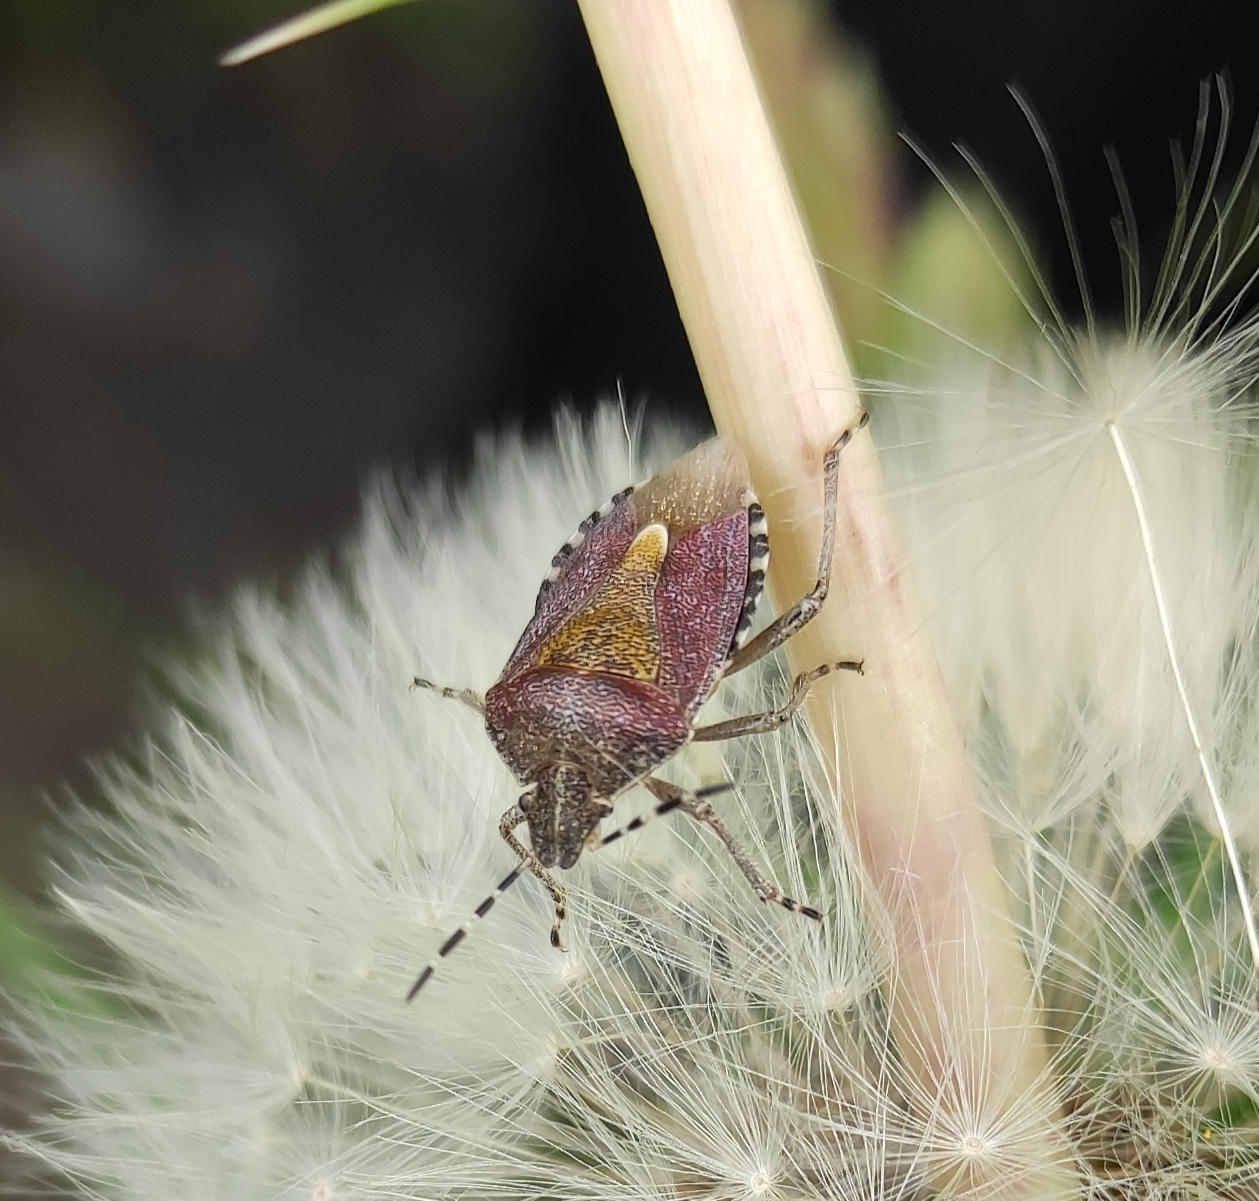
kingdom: Animalia
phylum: Arthropoda
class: Insecta
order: Hemiptera
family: Pentatomidae
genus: Dolycoris
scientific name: Dolycoris baccarum
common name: Sloe bug
